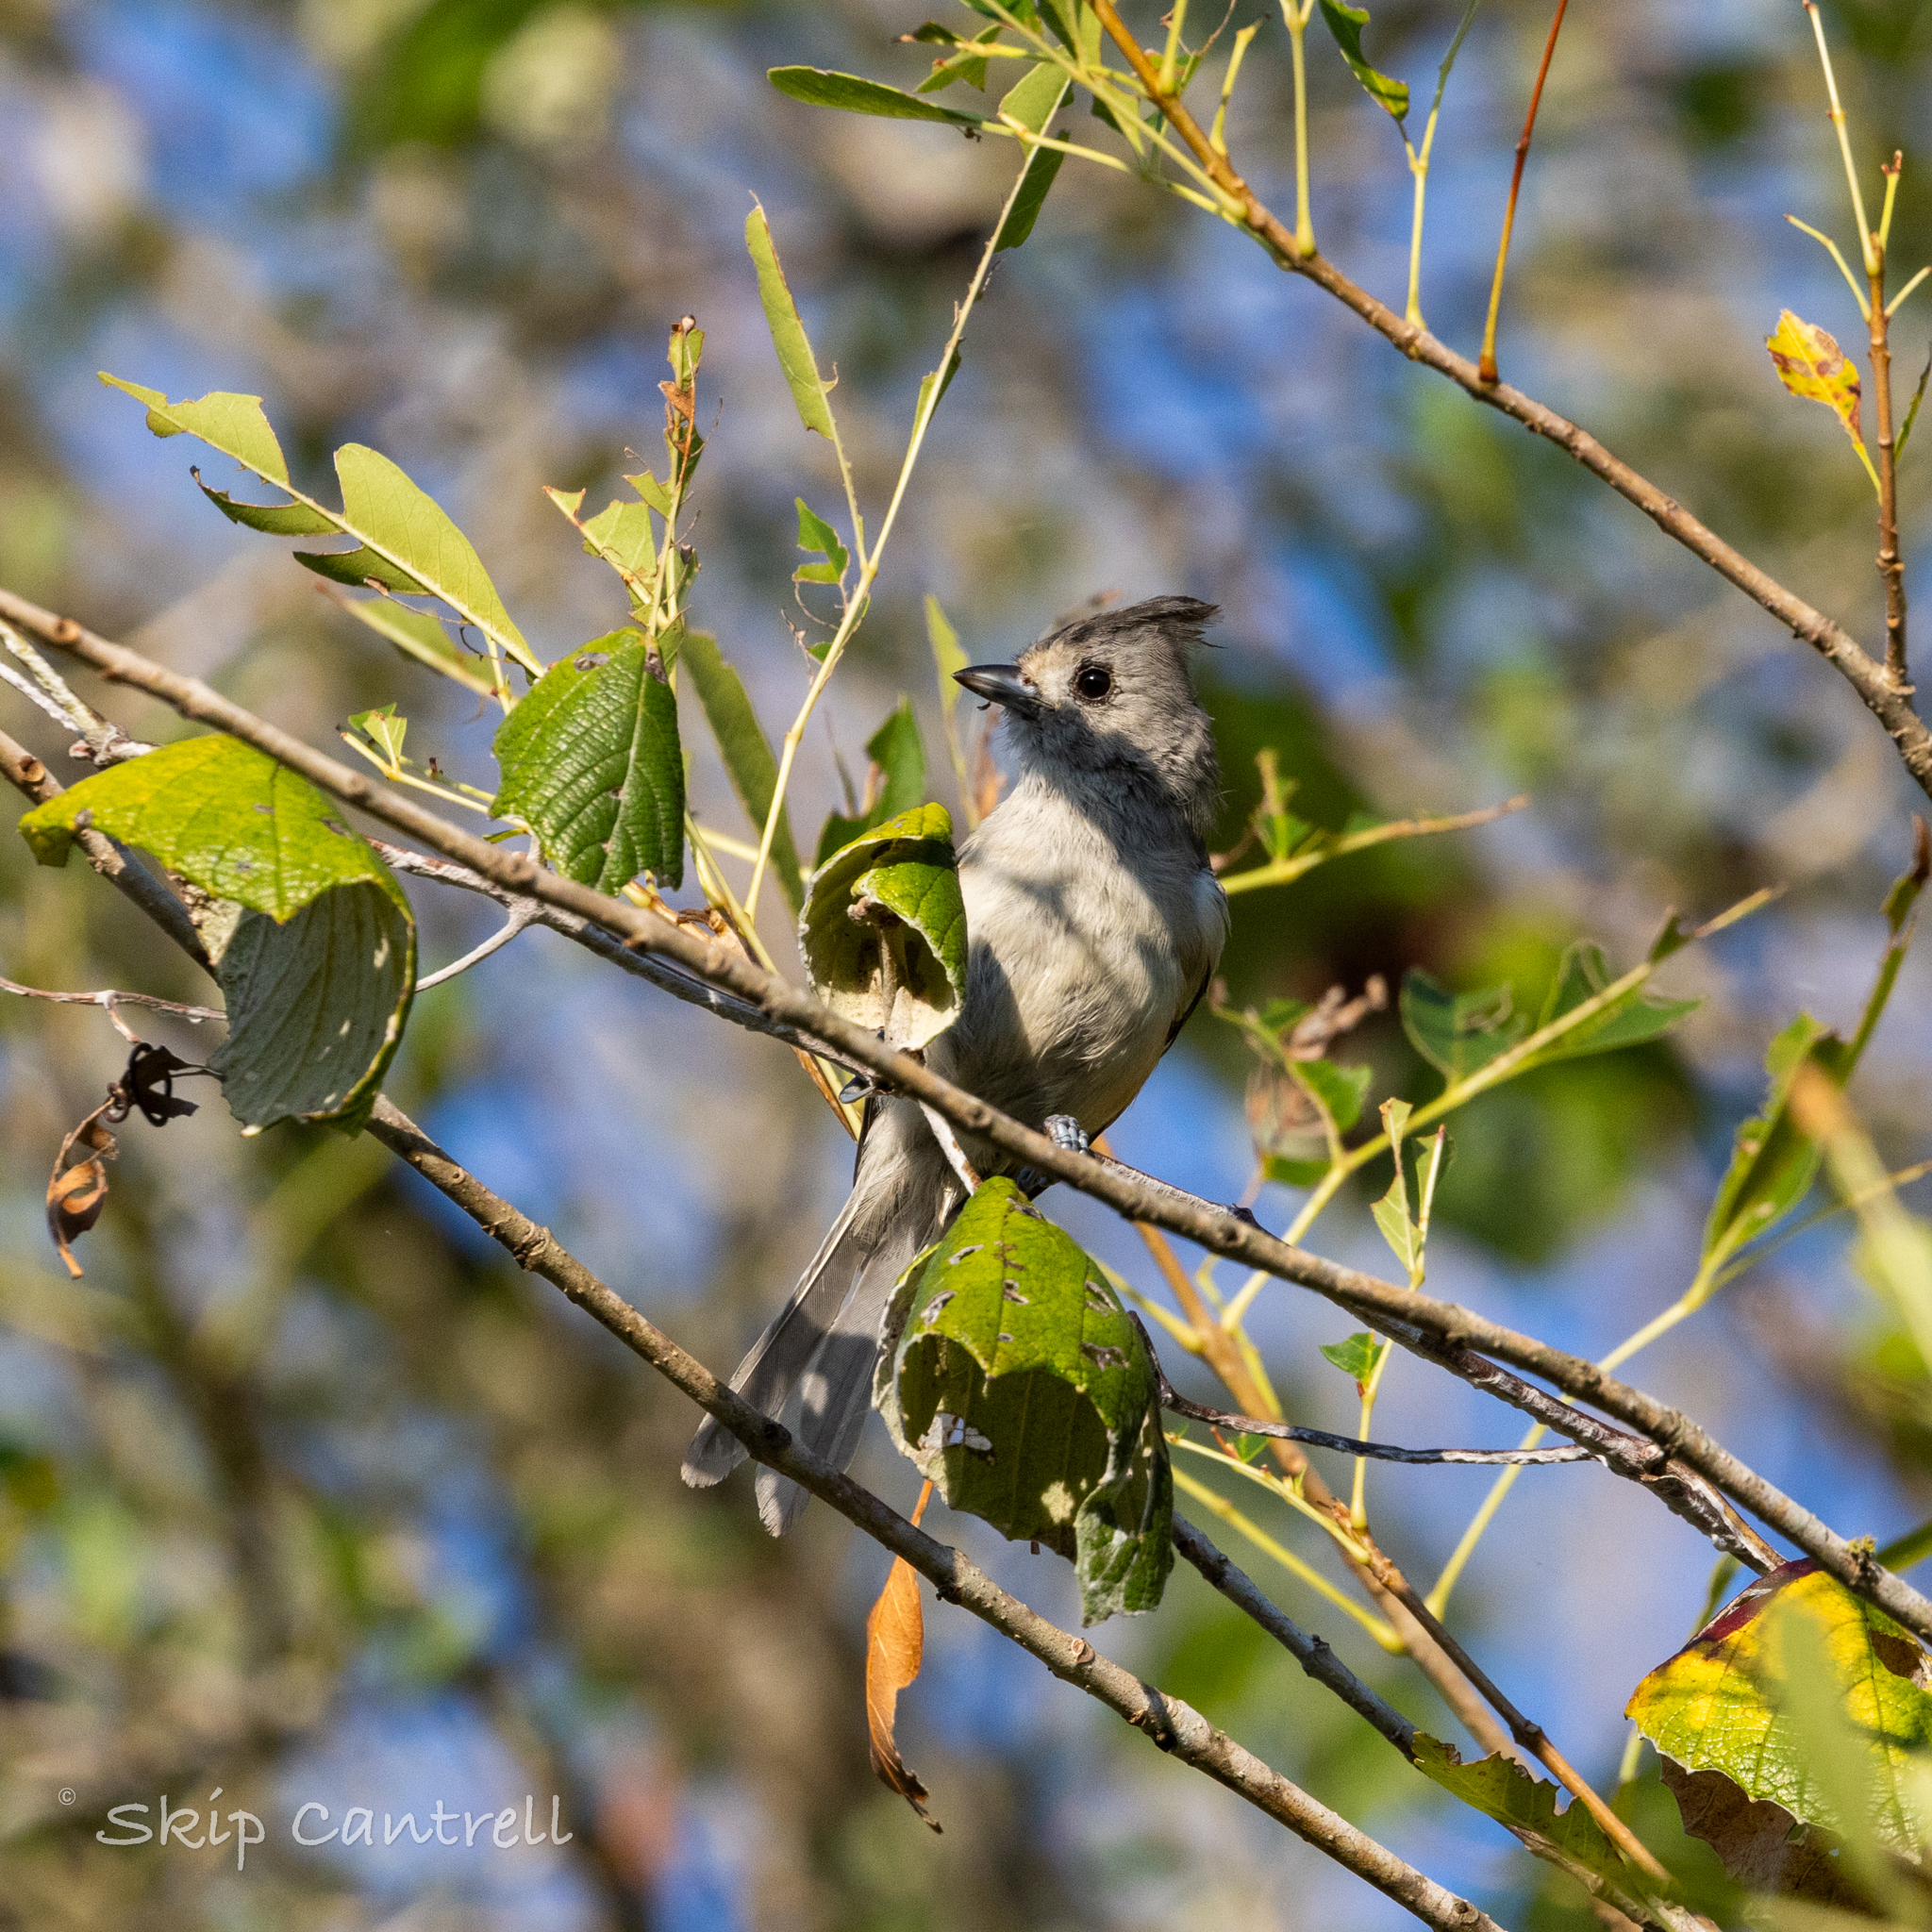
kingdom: Animalia
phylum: Chordata
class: Aves
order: Passeriformes
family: Paridae
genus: Baeolophus
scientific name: Baeolophus atricristatus
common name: Black-crested titmouse
